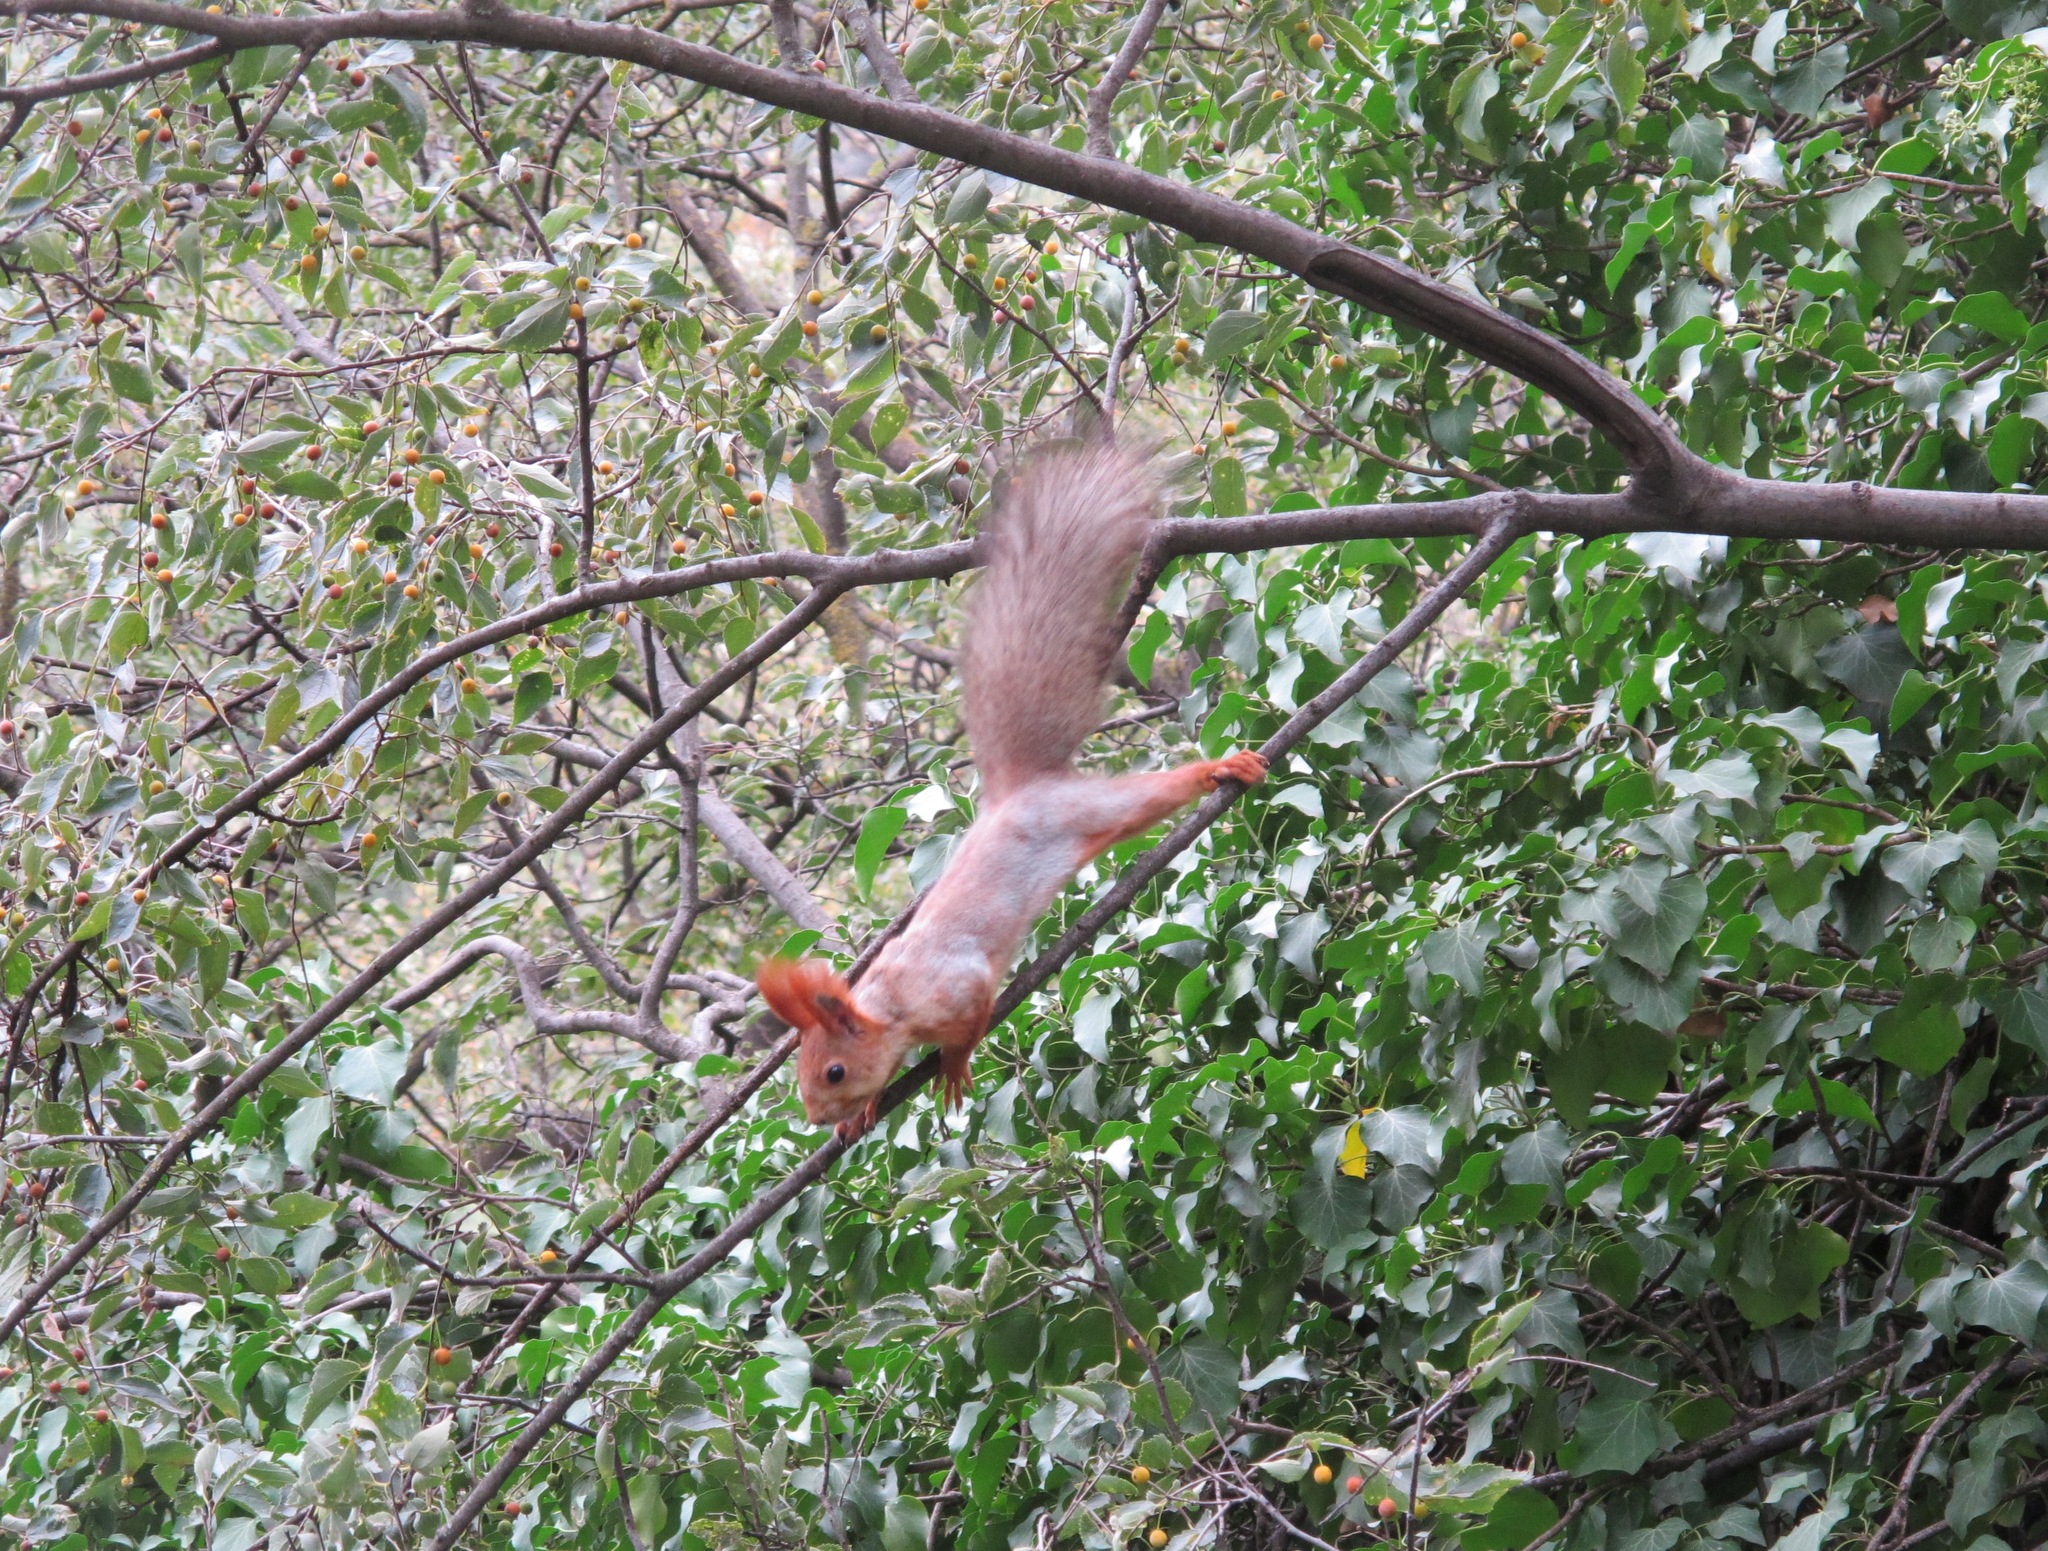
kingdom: Animalia
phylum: Chordata
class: Mammalia
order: Rodentia
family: Sciuridae
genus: Sciurus
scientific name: Sciurus vulgaris
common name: Eurasian red squirrel
